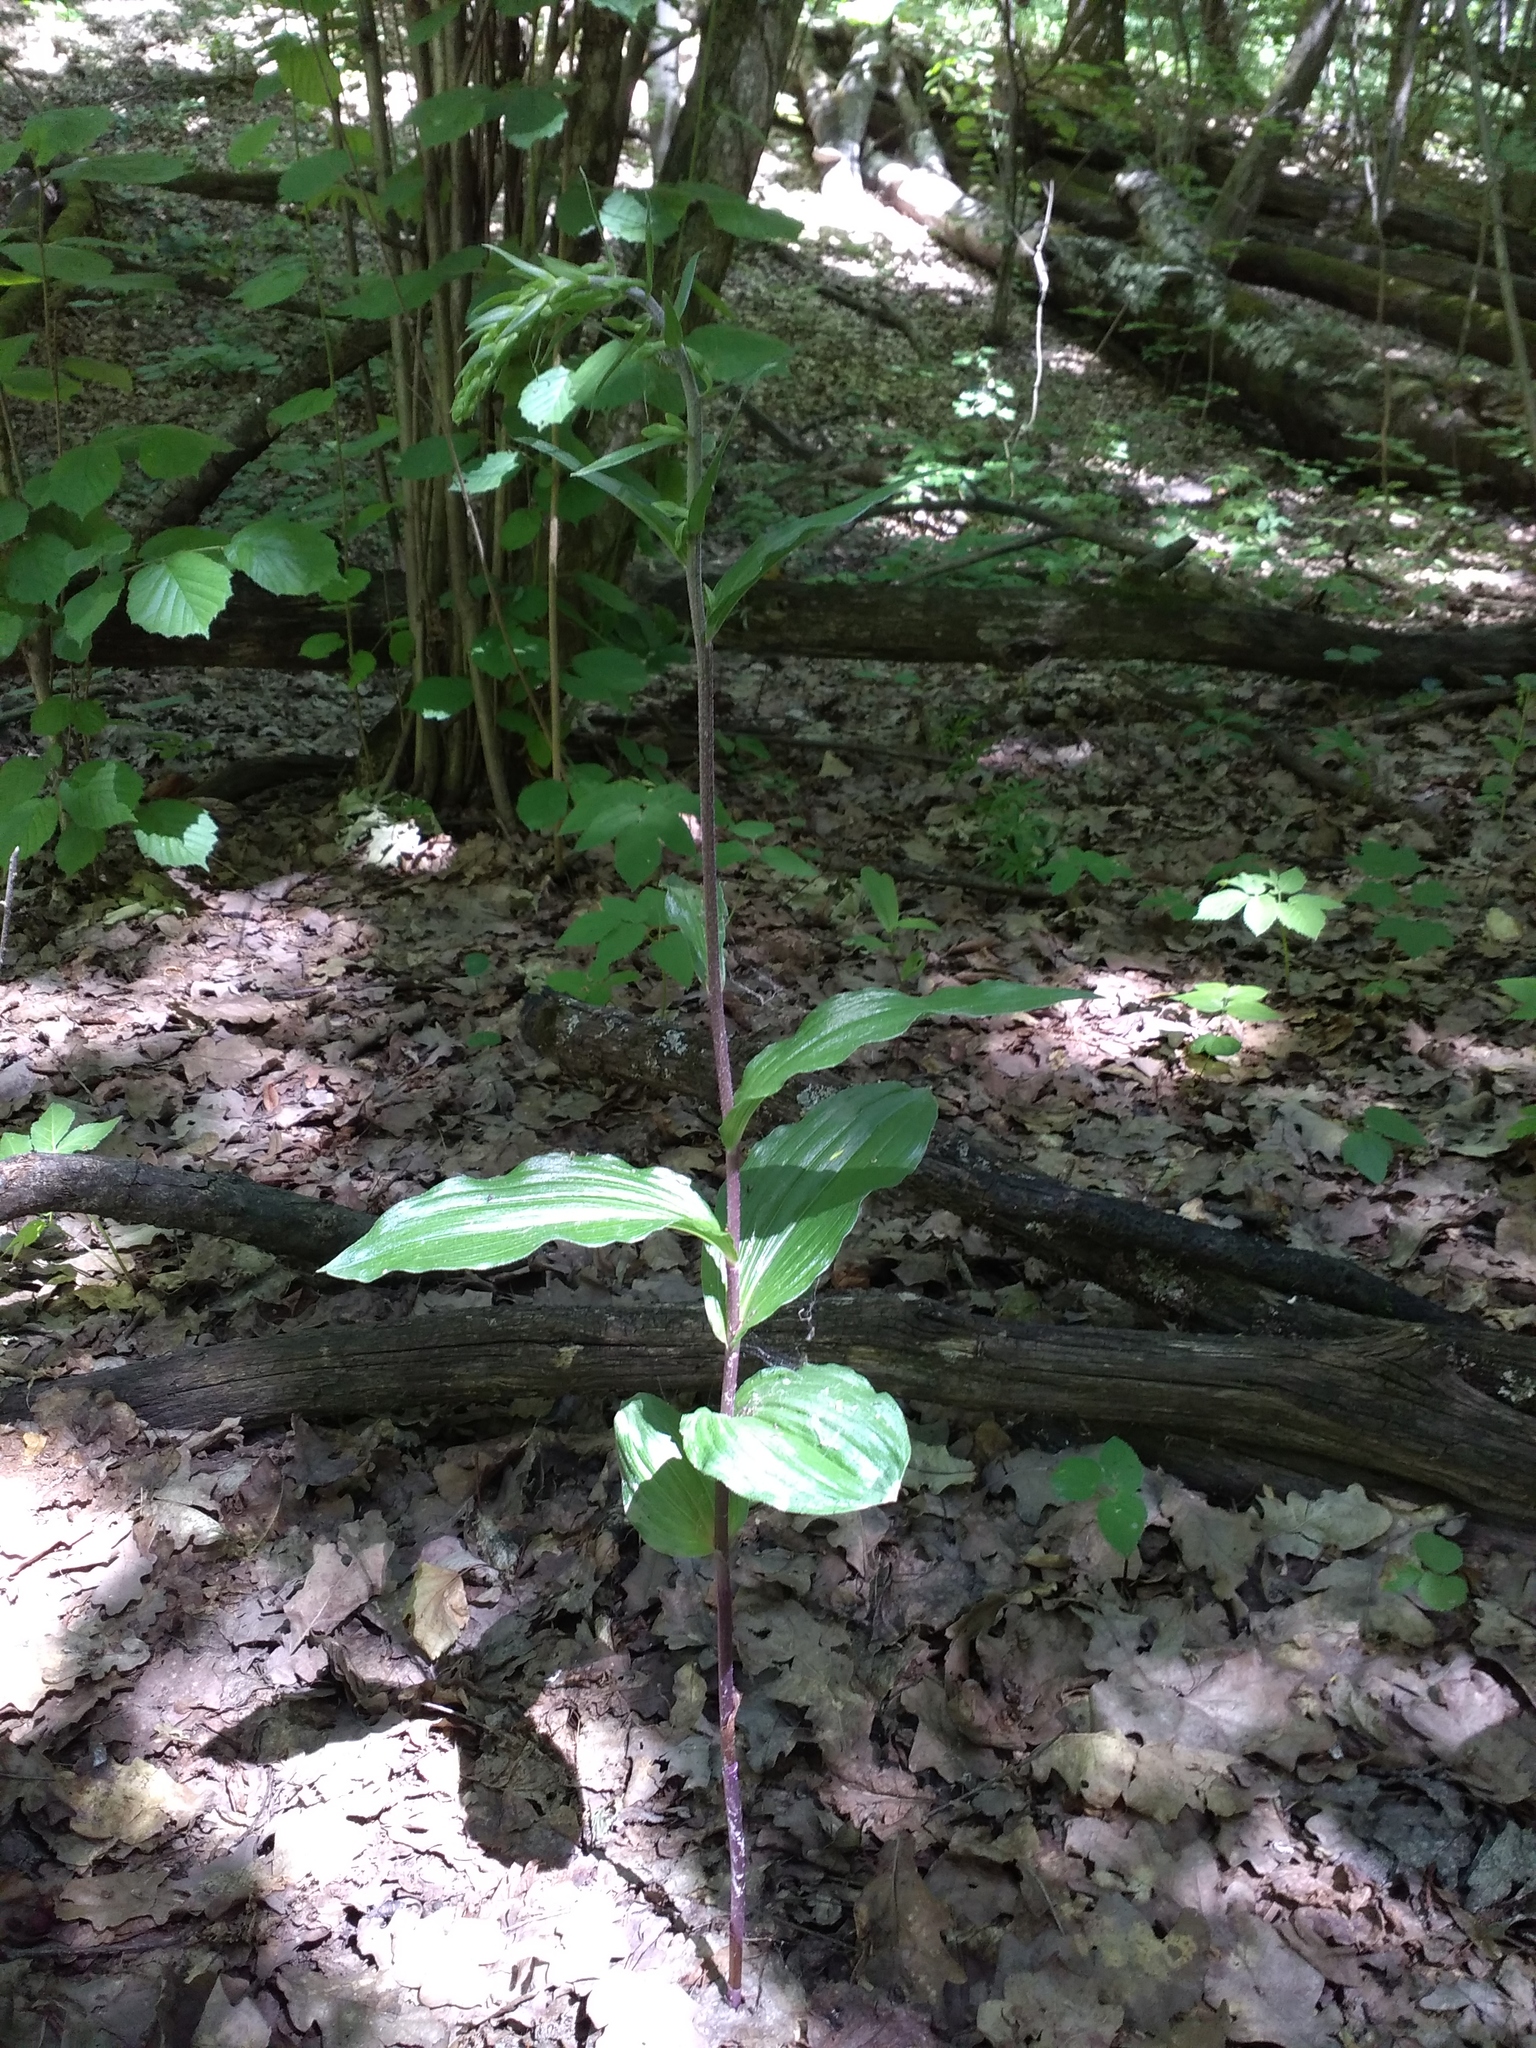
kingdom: Plantae
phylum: Tracheophyta
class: Liliopsida
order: Asparagales
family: Orchidaceae
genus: Epipactis
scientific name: Epipactis helleborine
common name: Broad-leaved helleborine
